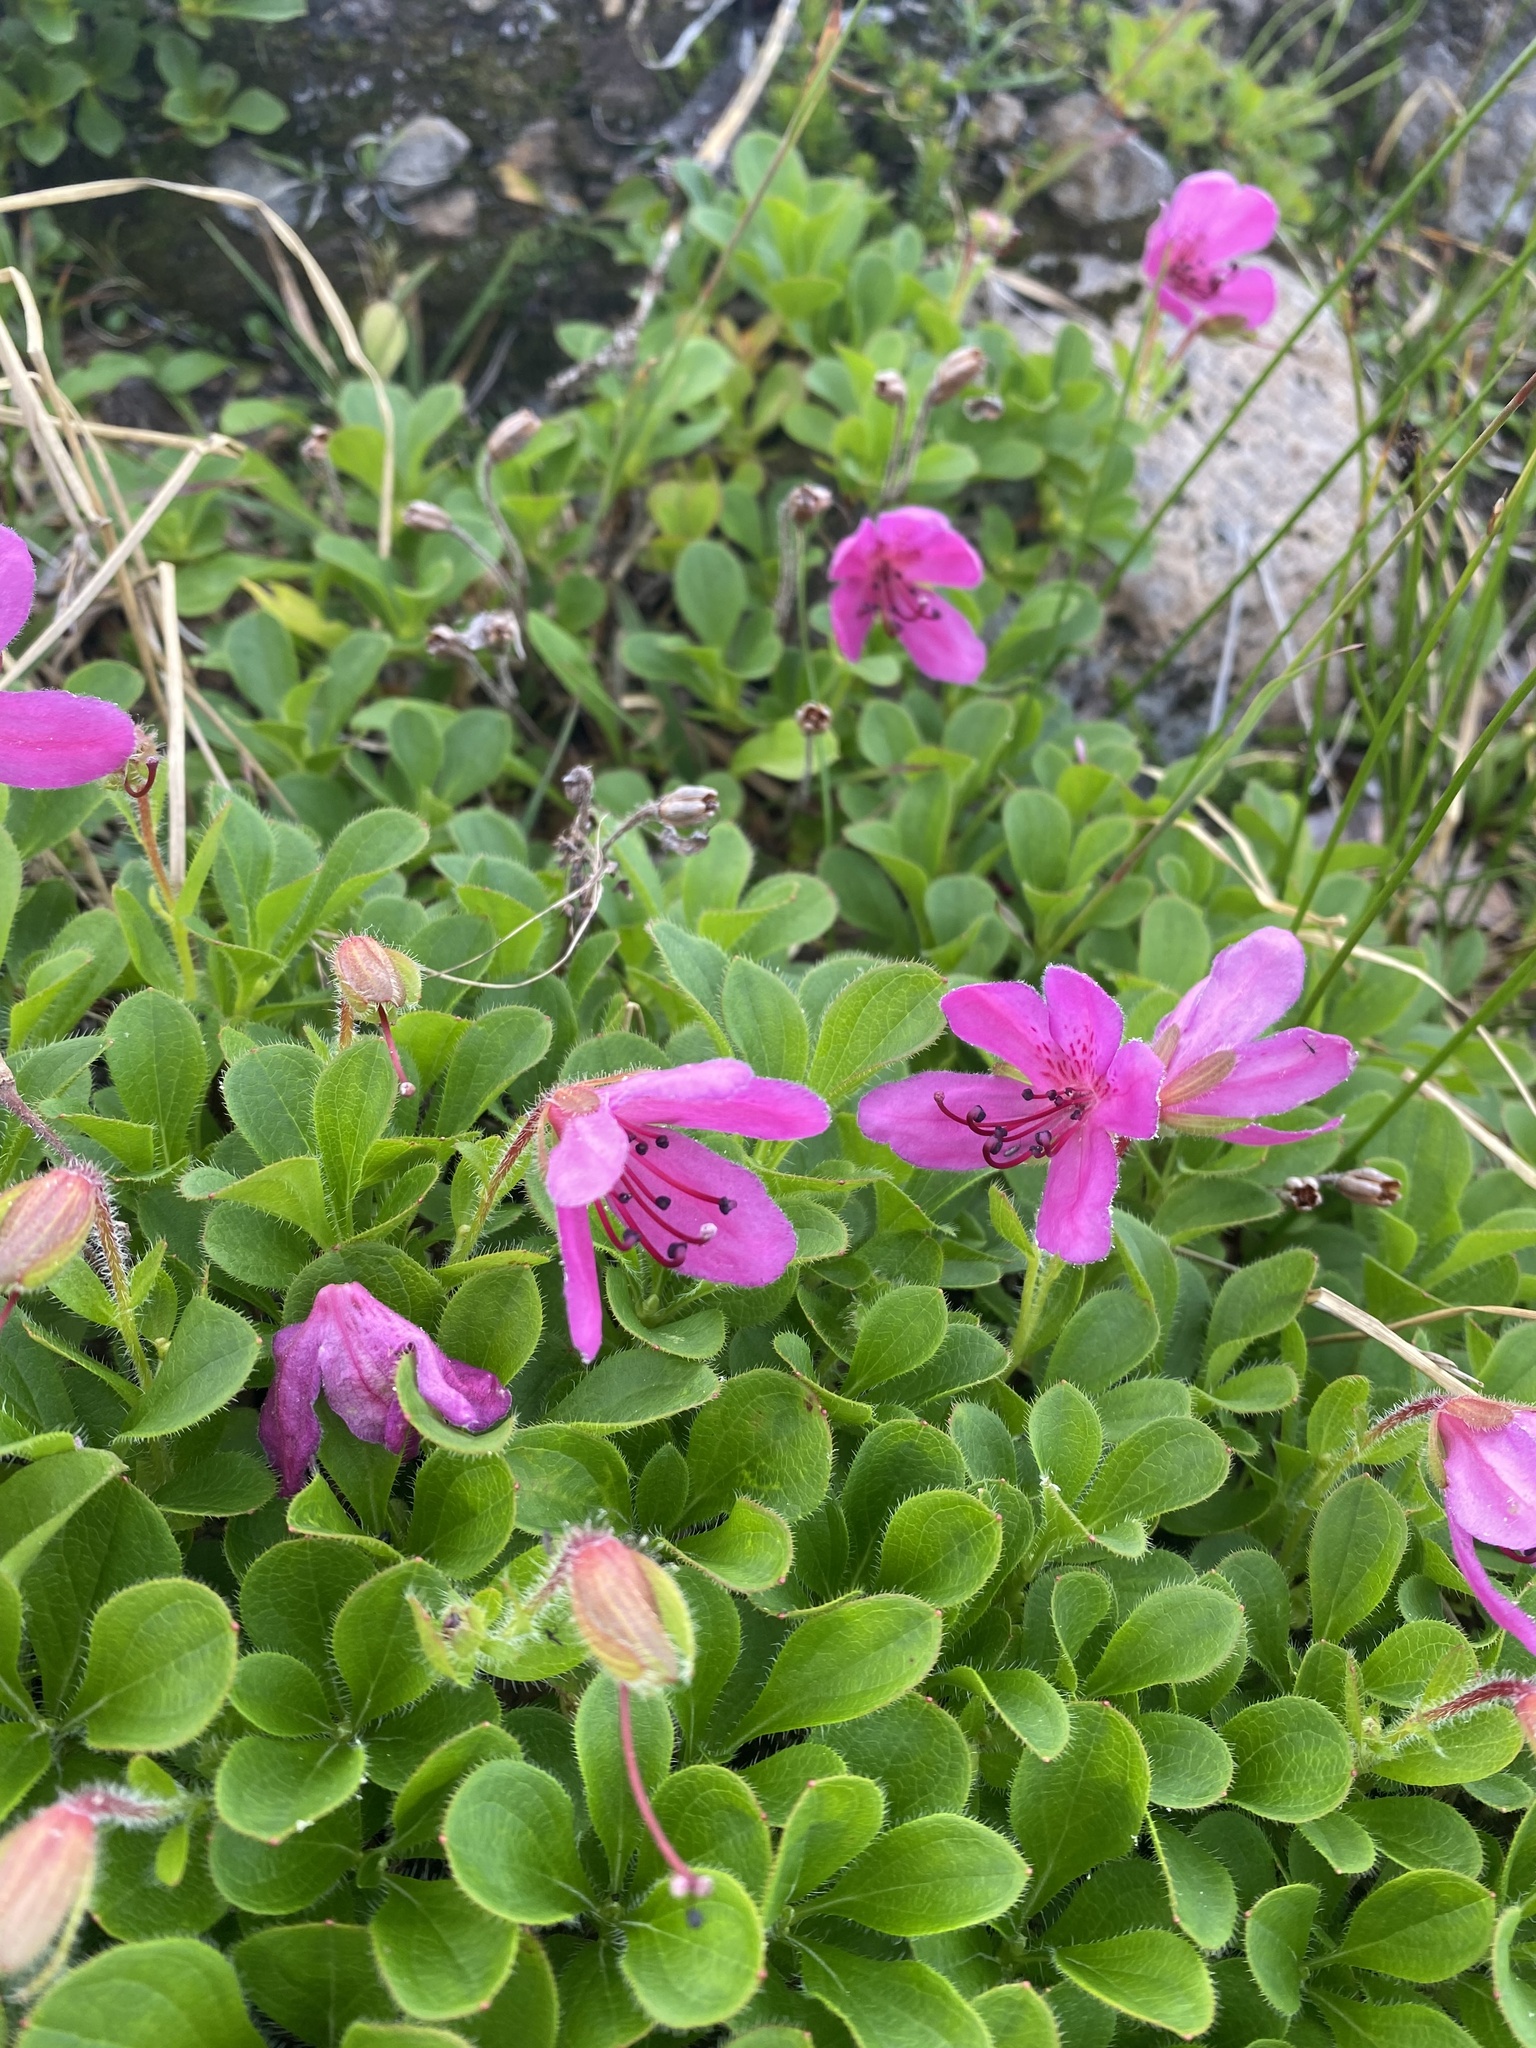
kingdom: Plantae
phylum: Tracheophyta
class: Magnoliopsida
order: Ericales
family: Ericaceae
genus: Rhododendron
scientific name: Rhododendron camtschaticum
